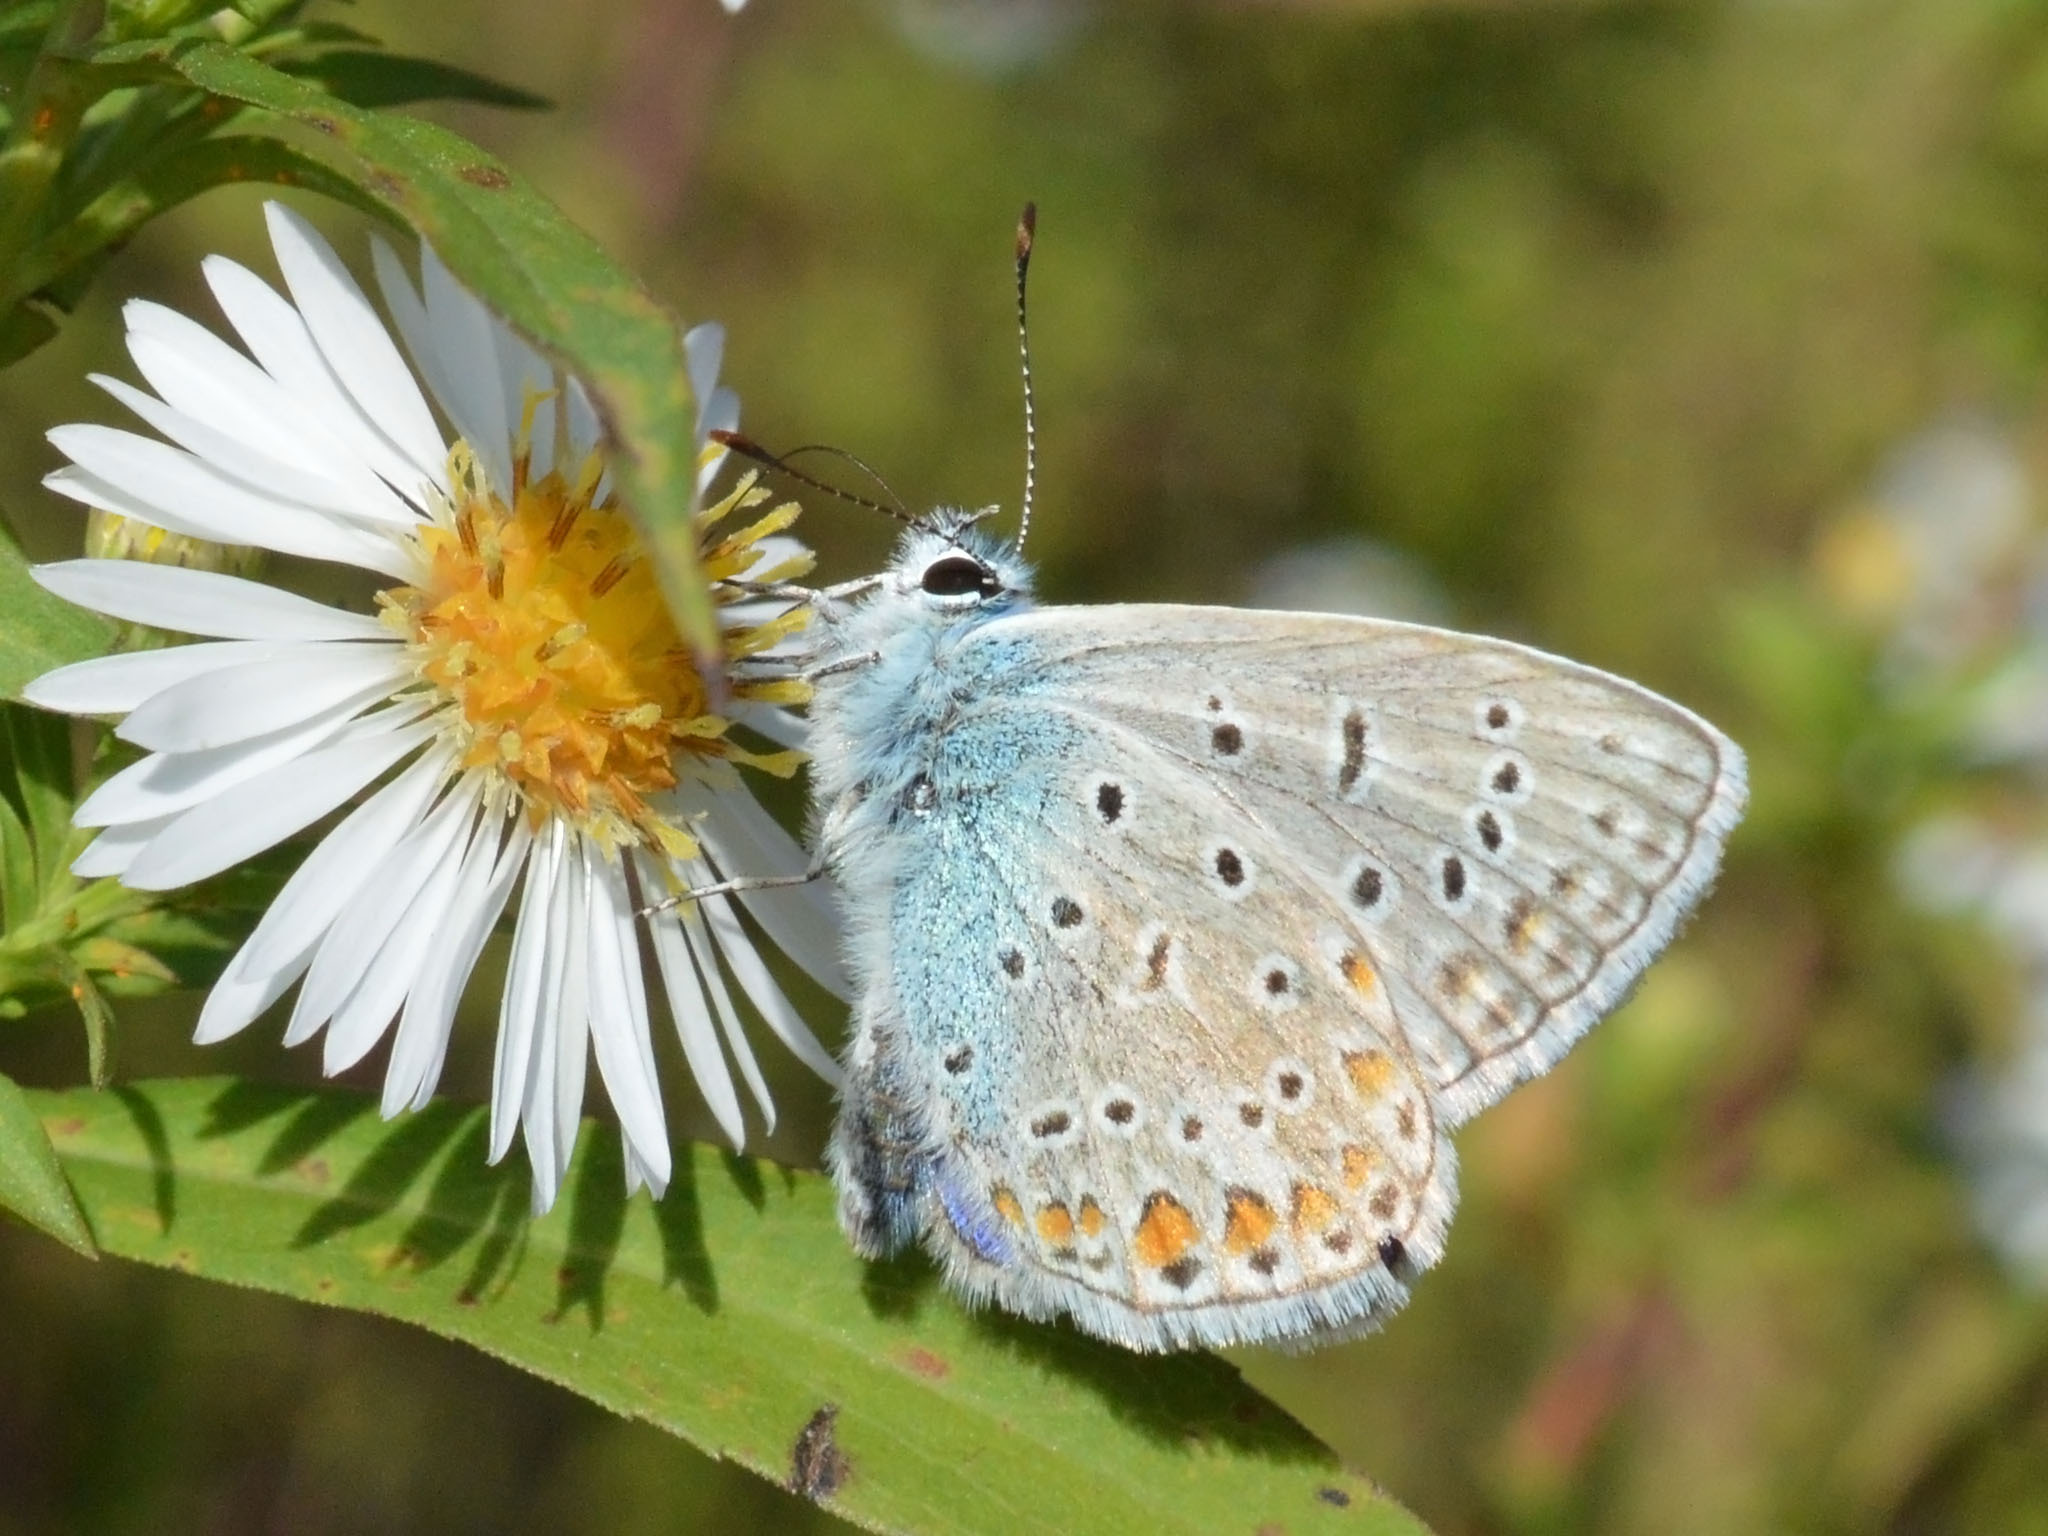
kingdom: Animalia
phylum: Arthropoda
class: Insecta
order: Lepidoptera
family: Lycaenidae
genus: Polyommatus
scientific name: Polyommatus icarus
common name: Common blue
